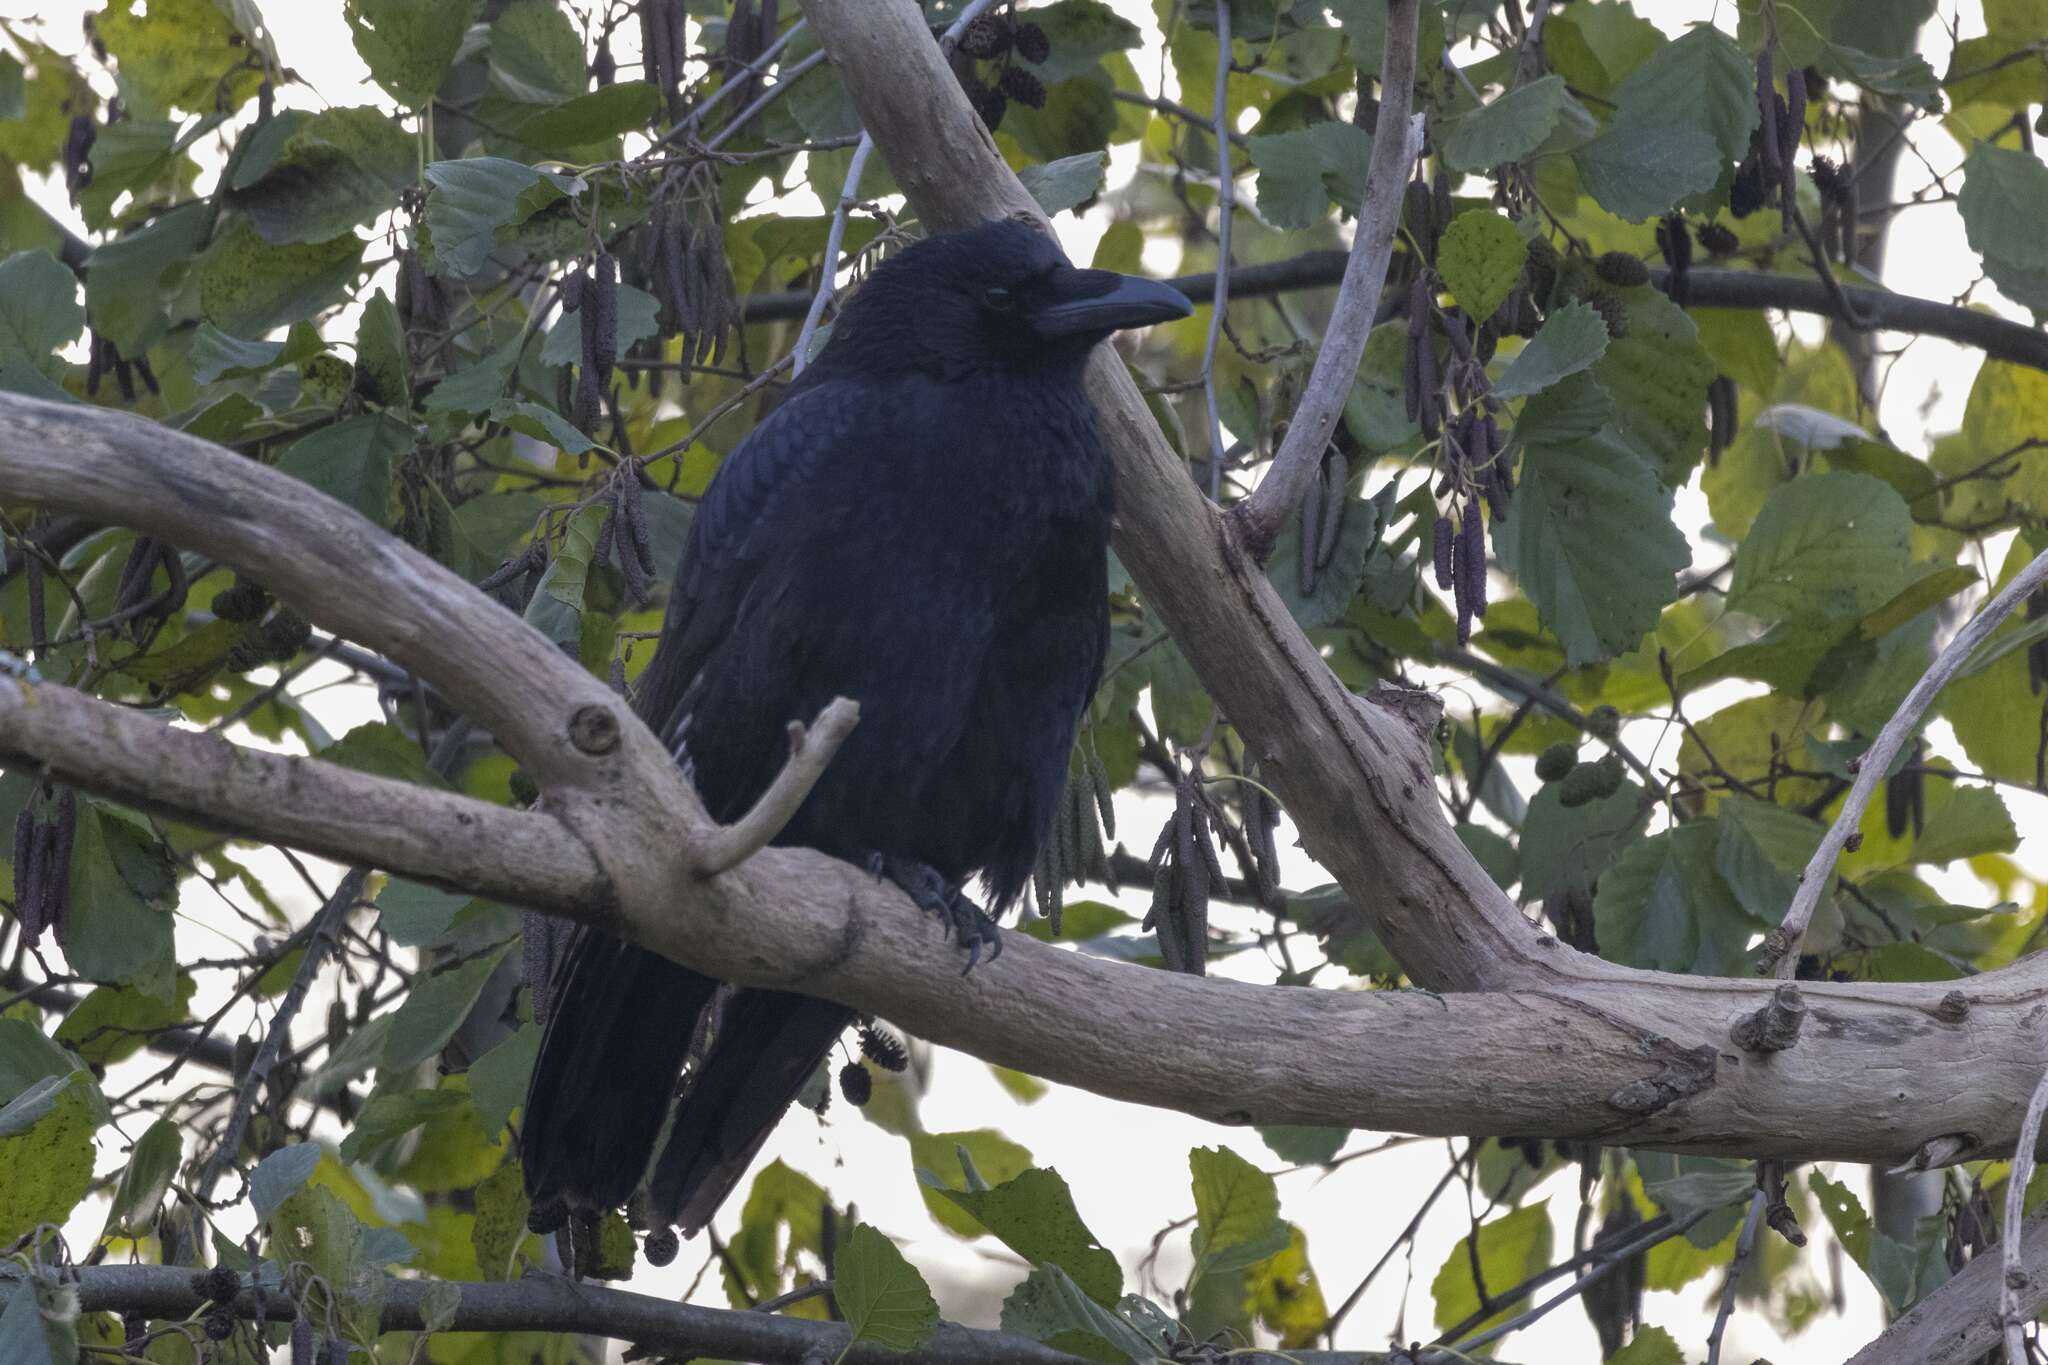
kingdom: Animalia
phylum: Chordata
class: Aves
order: Passeriformes
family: Corvidae
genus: Corvus
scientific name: Corvus corone
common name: Carrion crow
